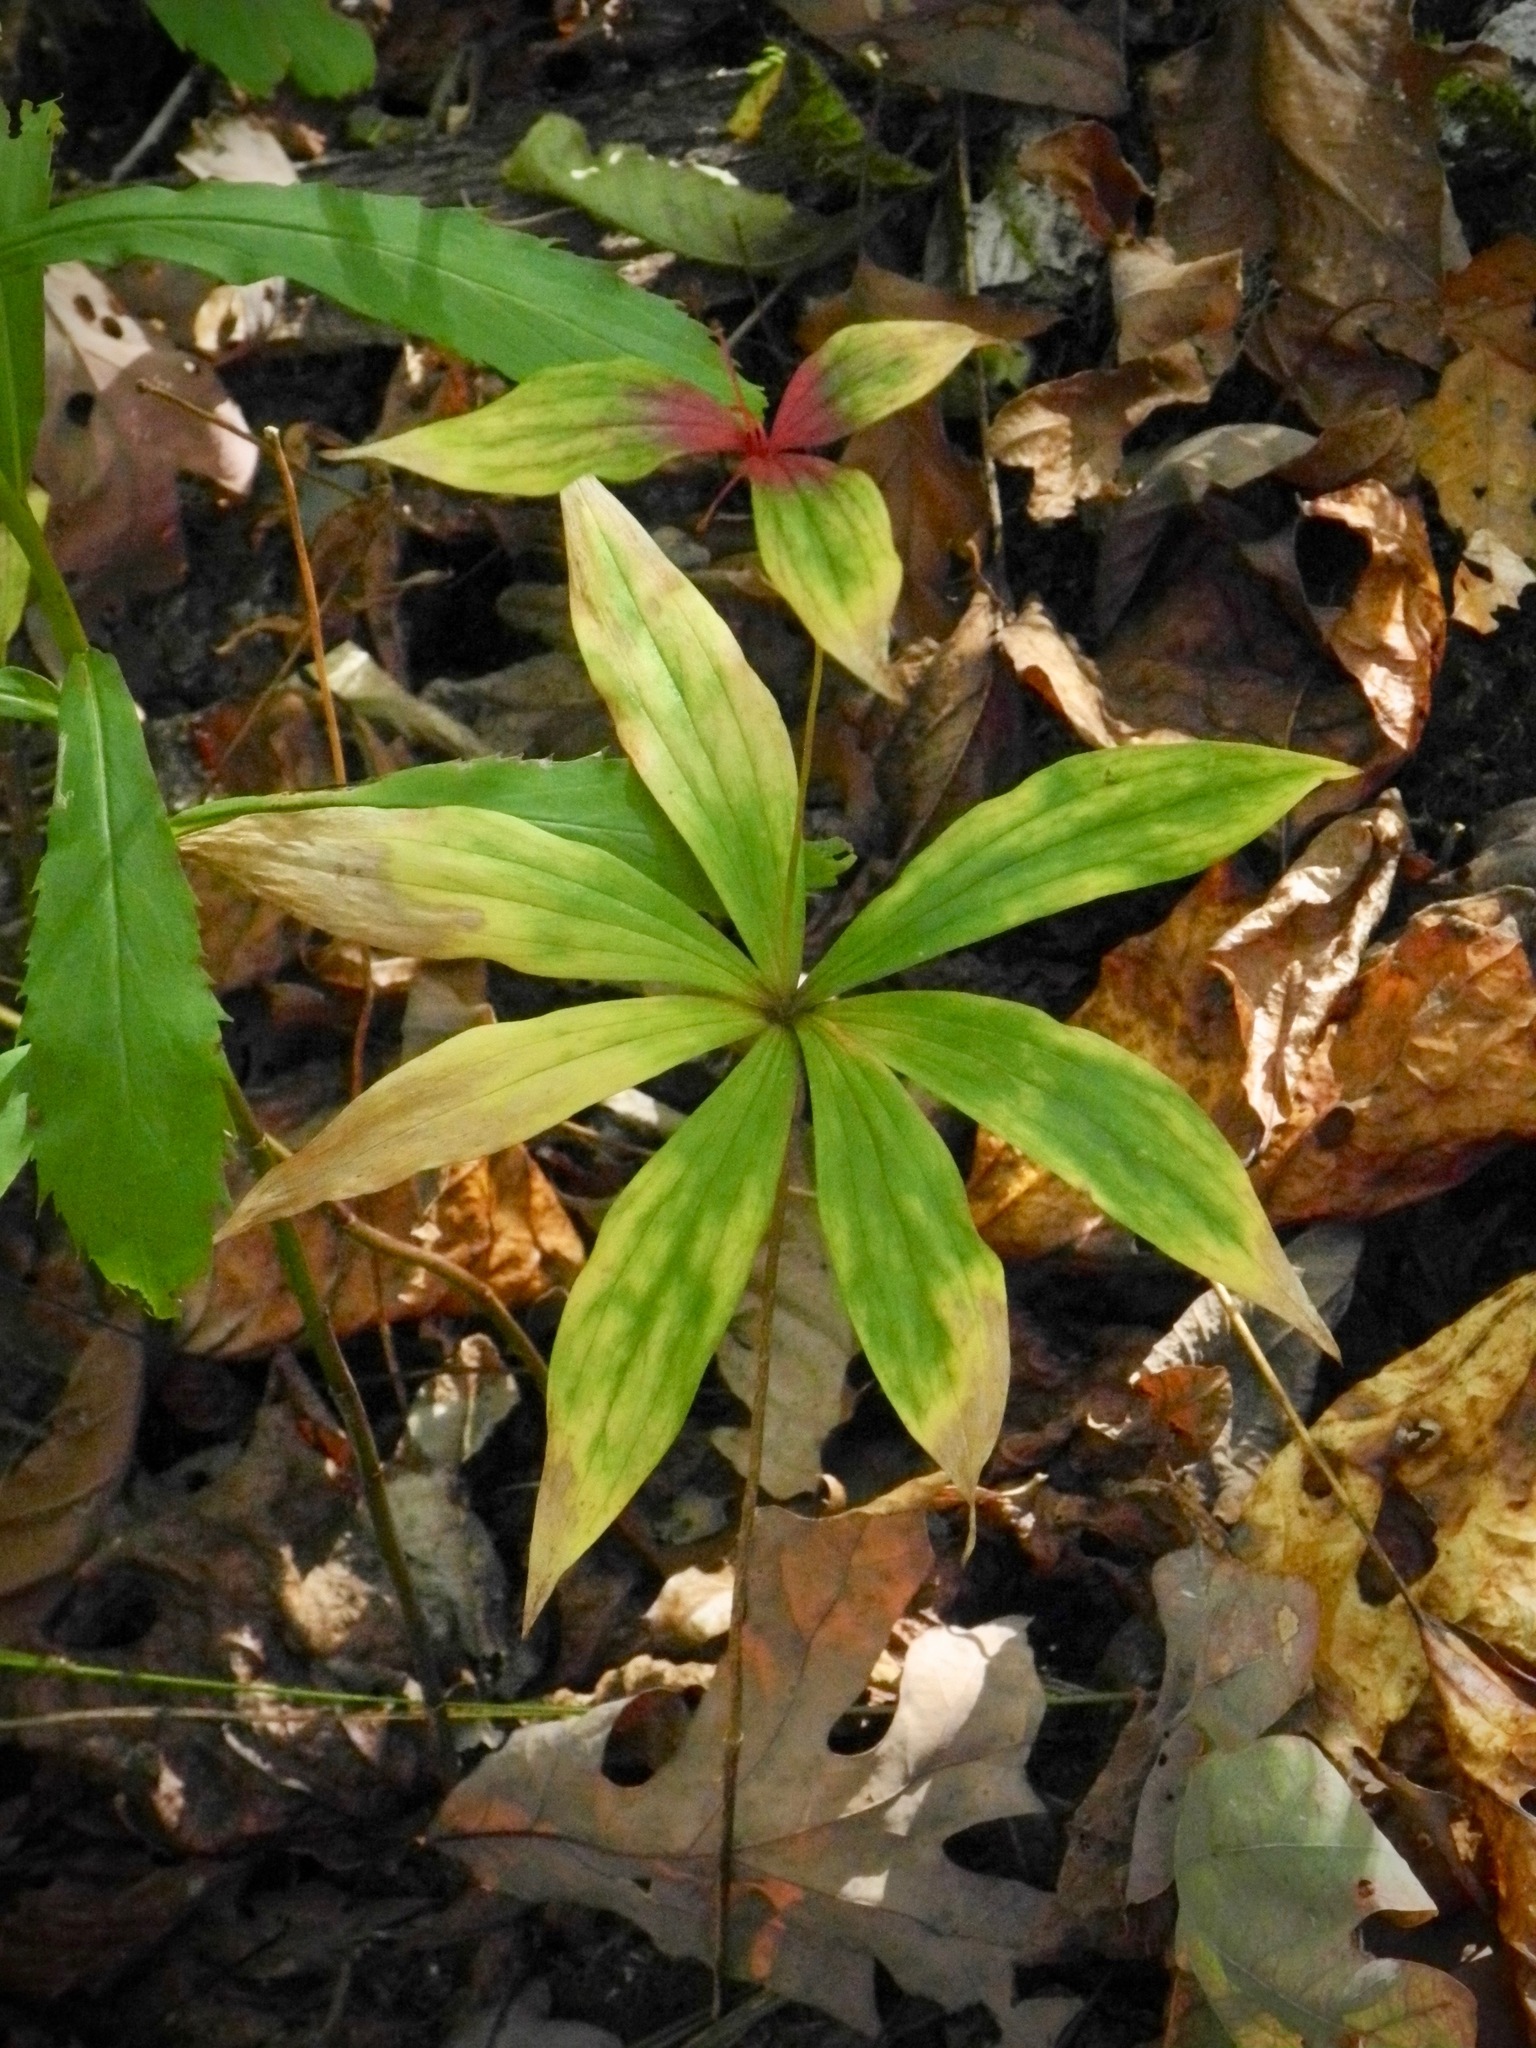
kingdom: Plantae
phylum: Tracheophyta
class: Liliopsida
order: Liliales
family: Liliaceae
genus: Medeola
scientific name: Medeola virginiana
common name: Indian cucumber-root
